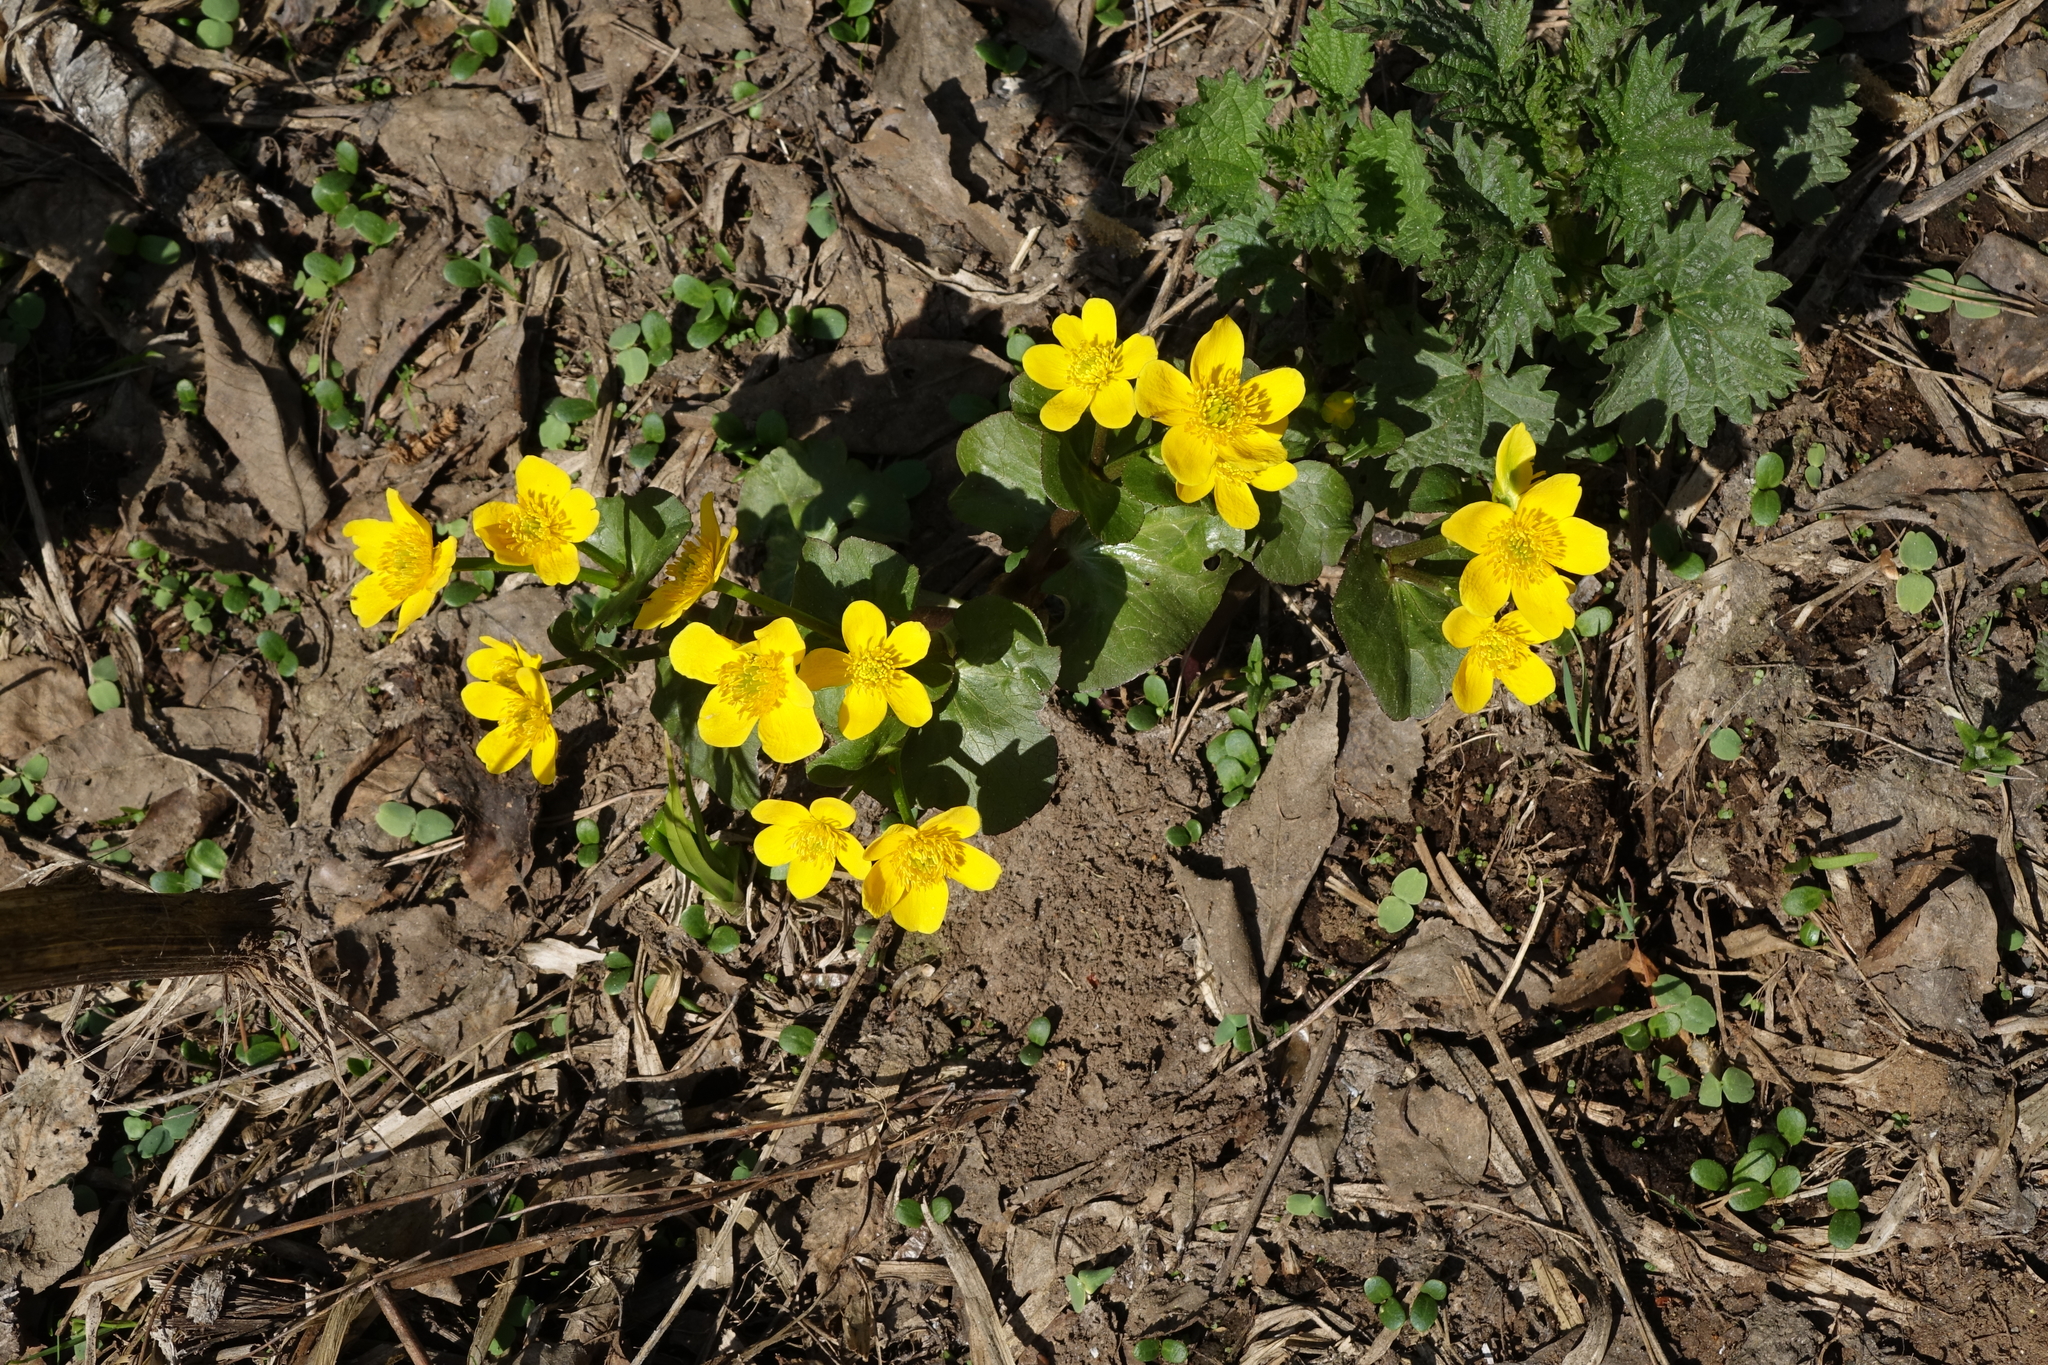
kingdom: Plantae
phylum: Tracheophyta
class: Magnoliopsida
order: Ranunculales
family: Ranunculaceae
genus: Caltha
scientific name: Caltha palustris
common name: Marsh marigold
